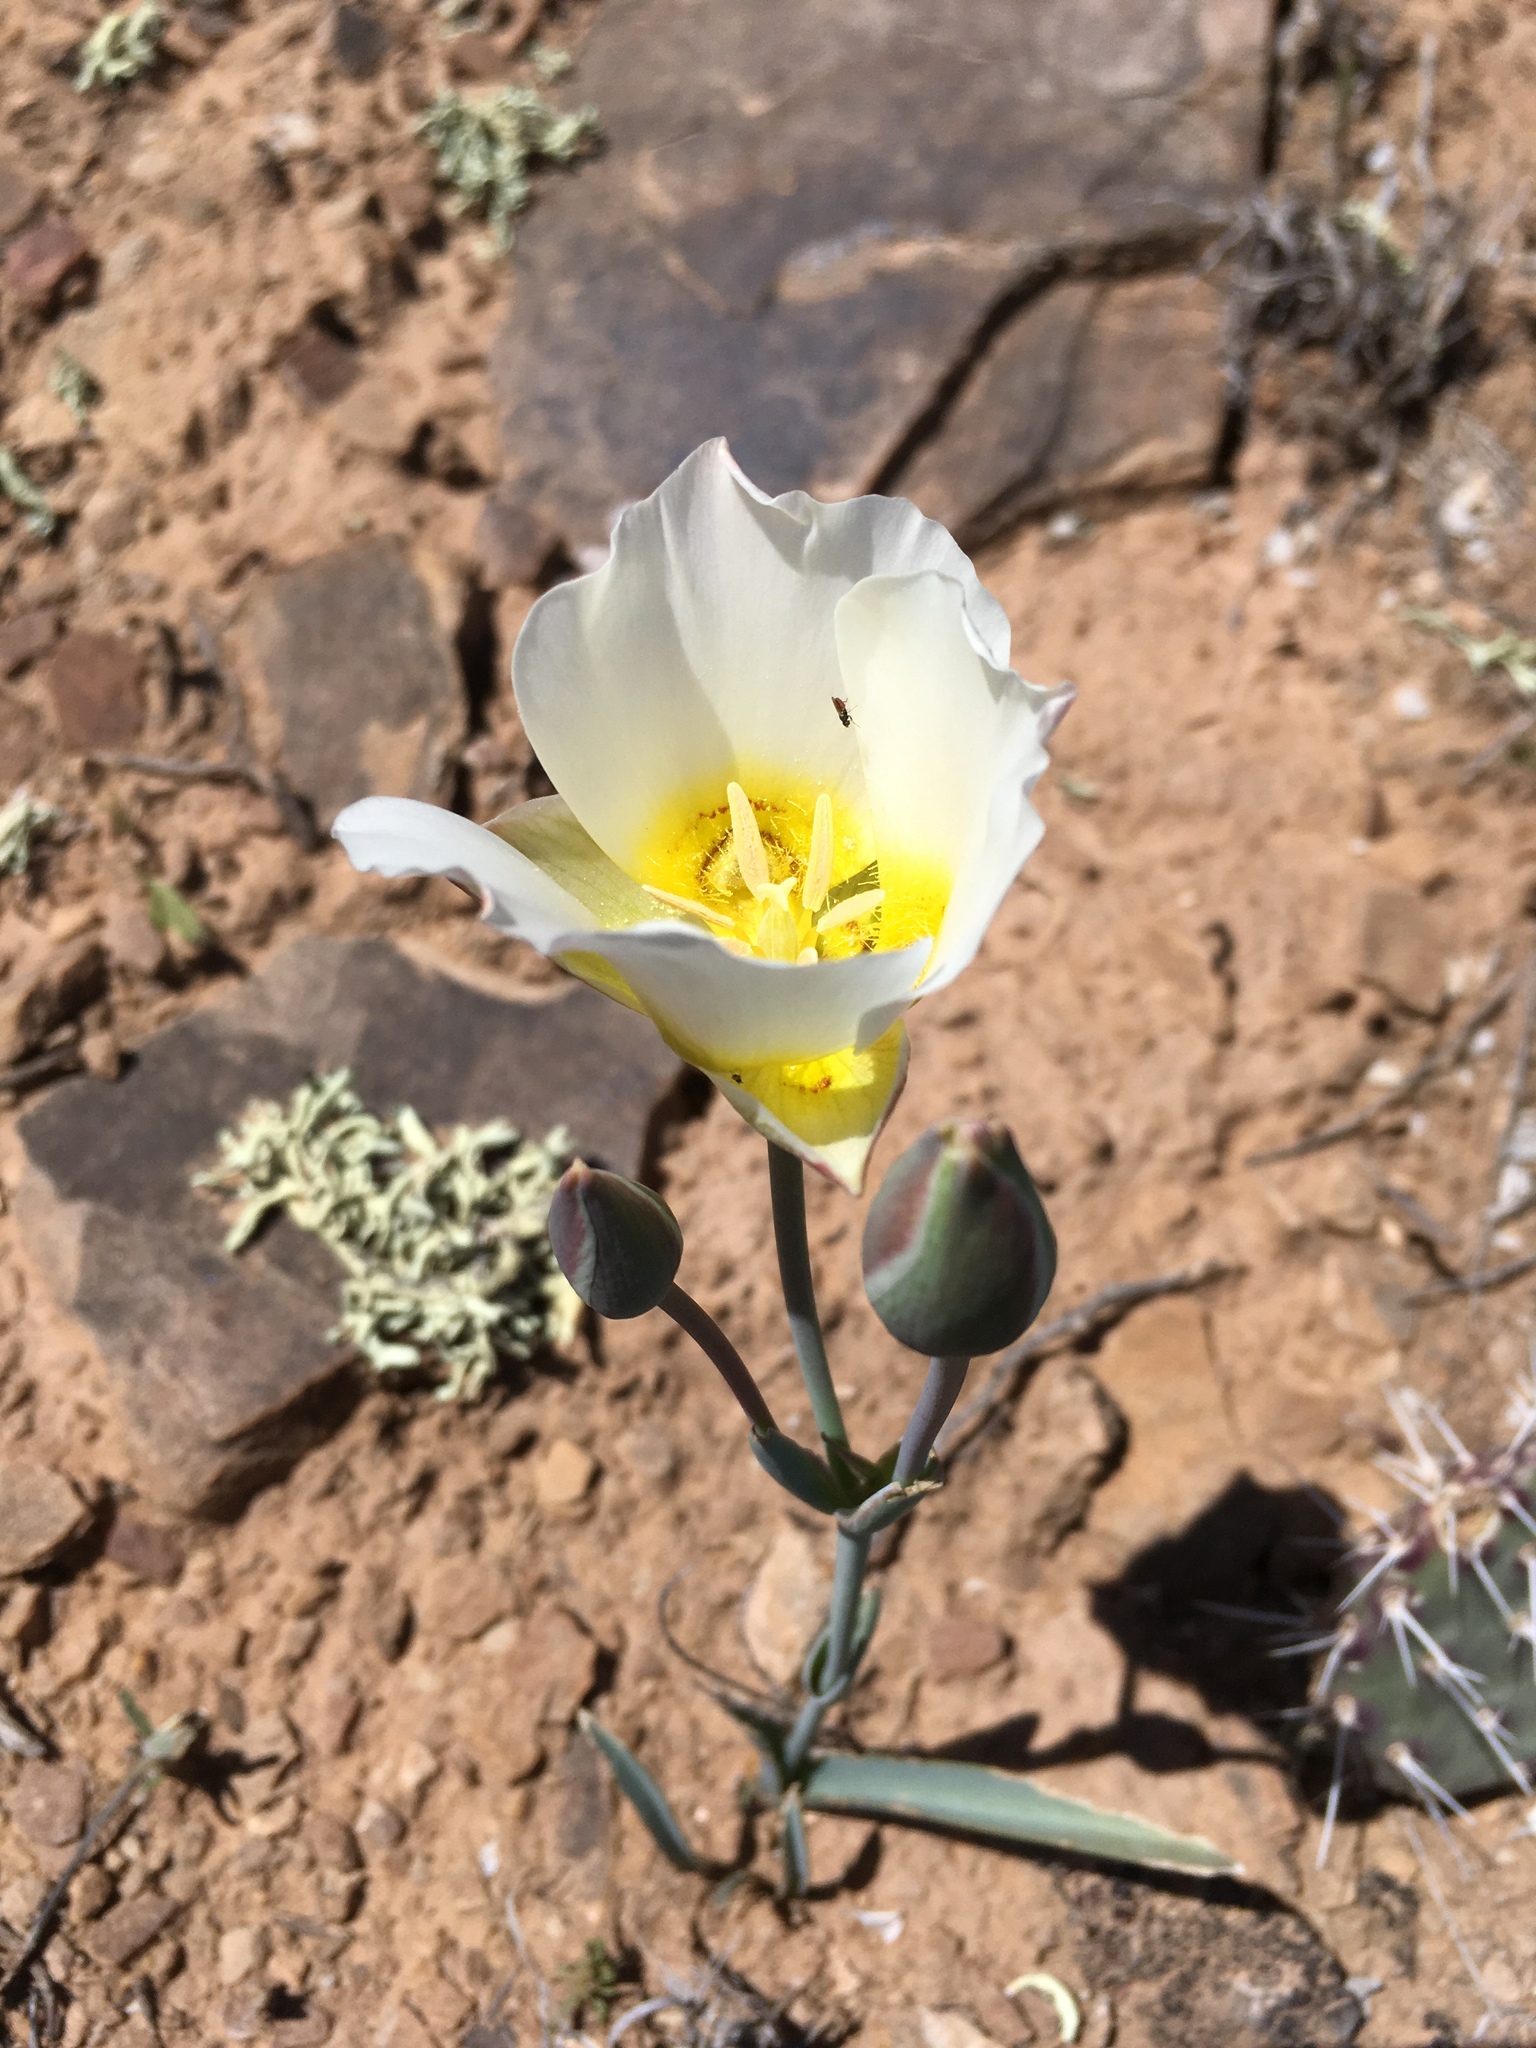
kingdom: Plantae
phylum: Tracheophyta
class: Liliopsida
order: Liliales
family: Liliaceae
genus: Calochortus
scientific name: Calochortus nuttallii
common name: Sego-lily
